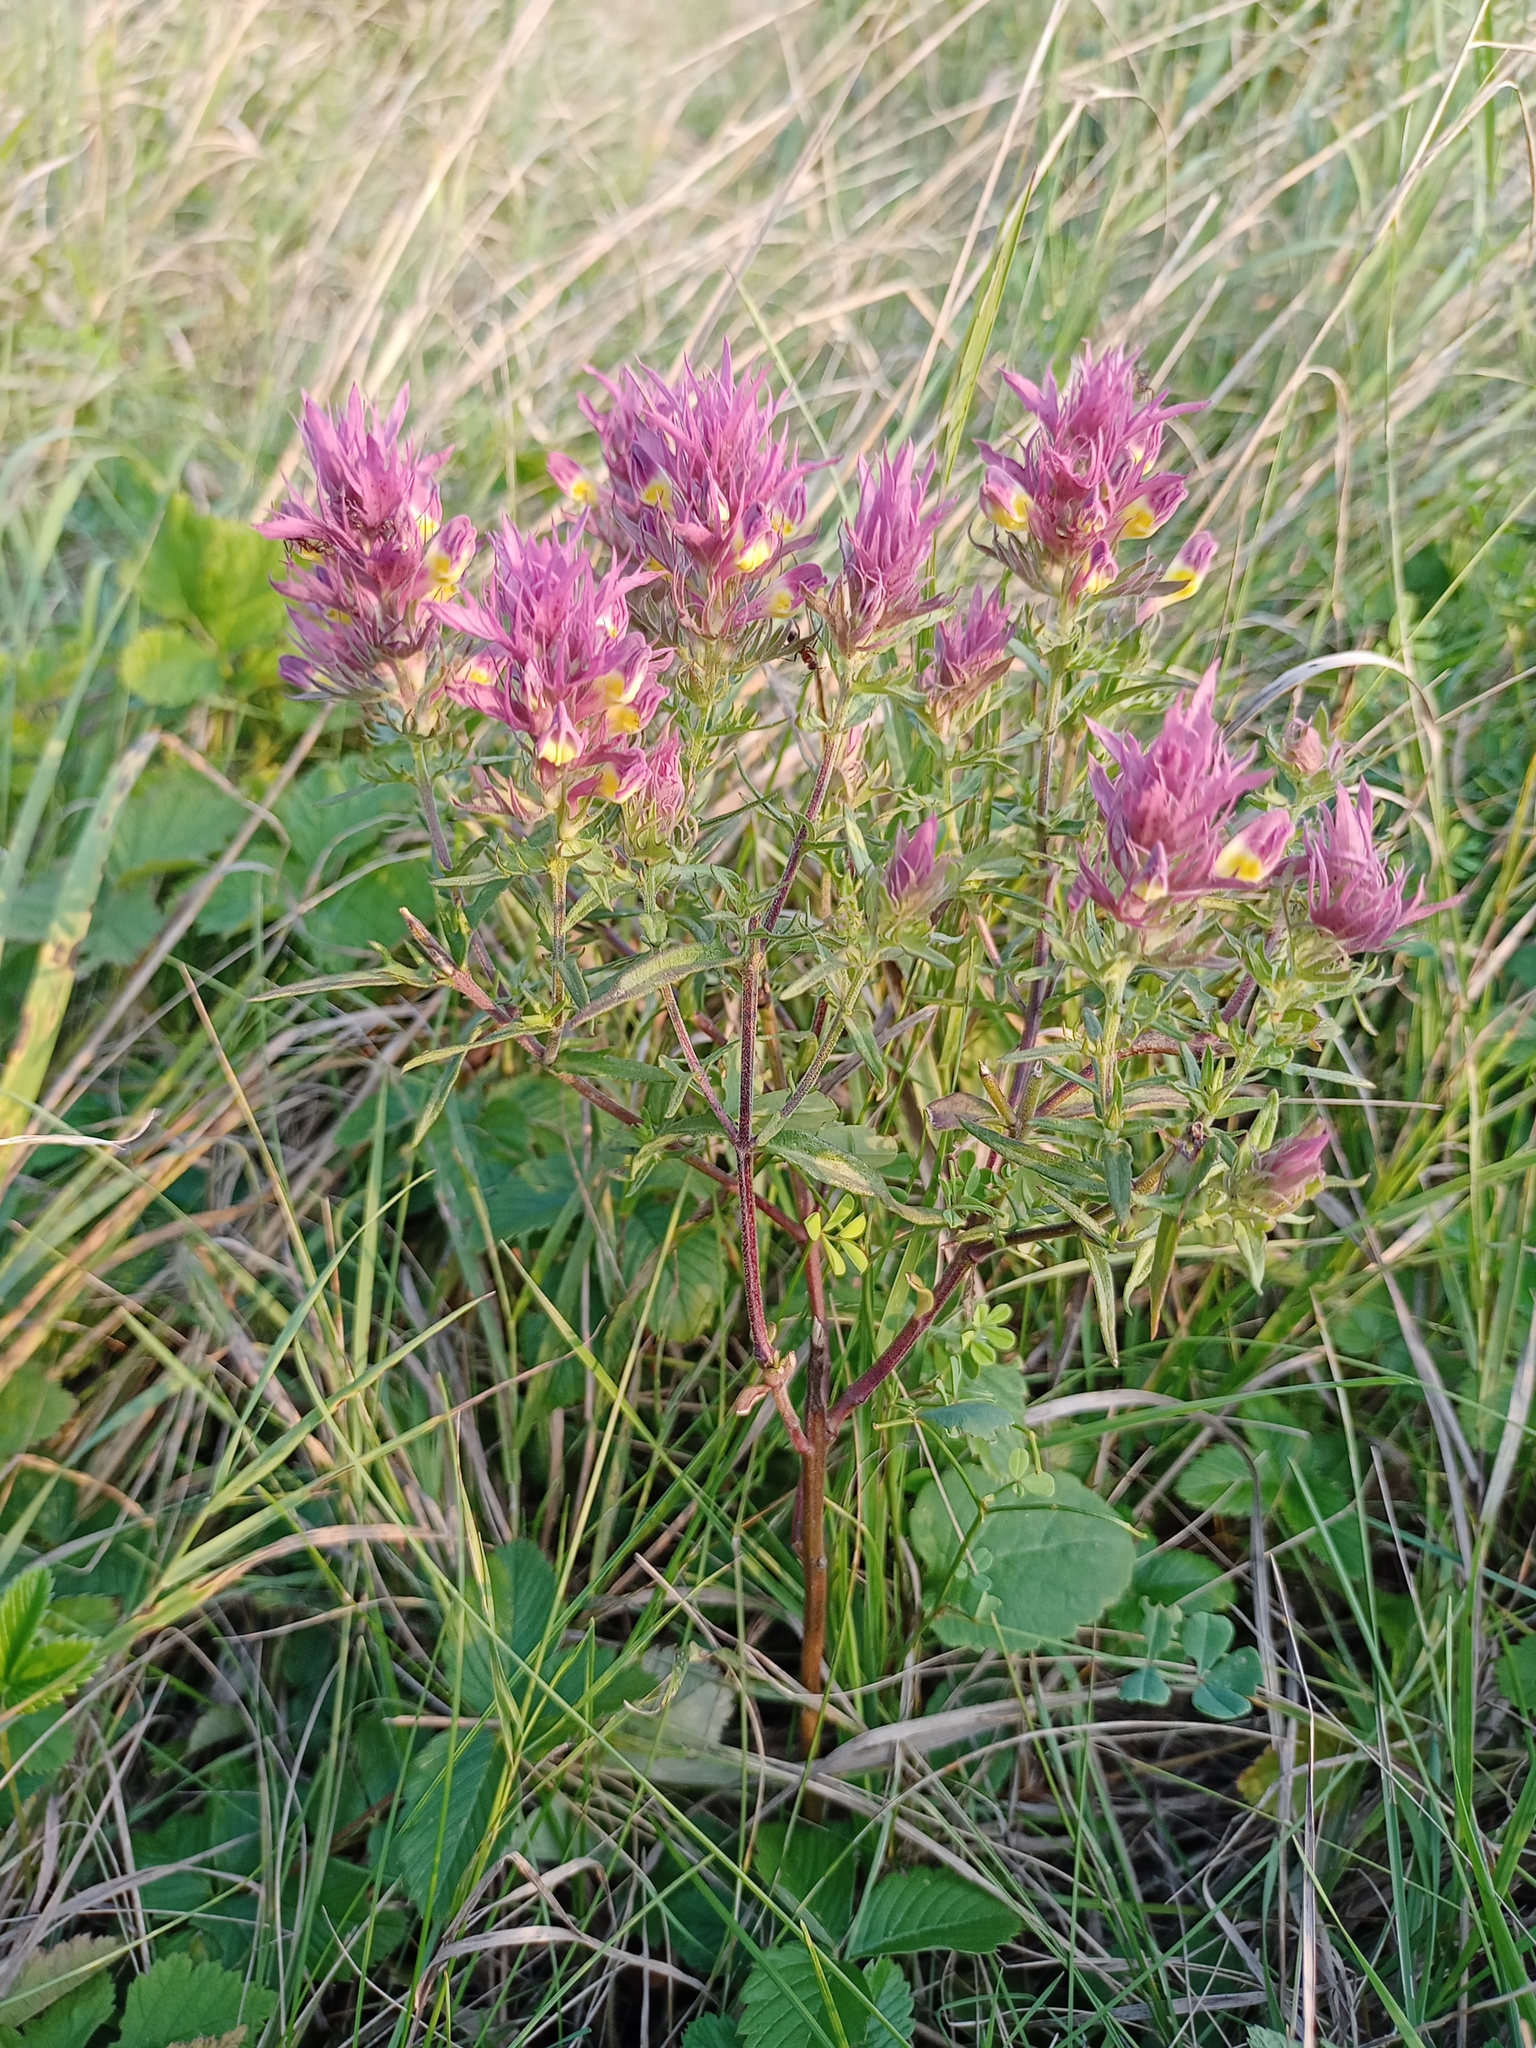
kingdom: Plantae
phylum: Tracheophyta
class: Magnoliopsida
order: Lamiales
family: Orobanchaceae
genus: Melampyrum
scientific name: Melampyrum arvense
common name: Field cow-wheat
